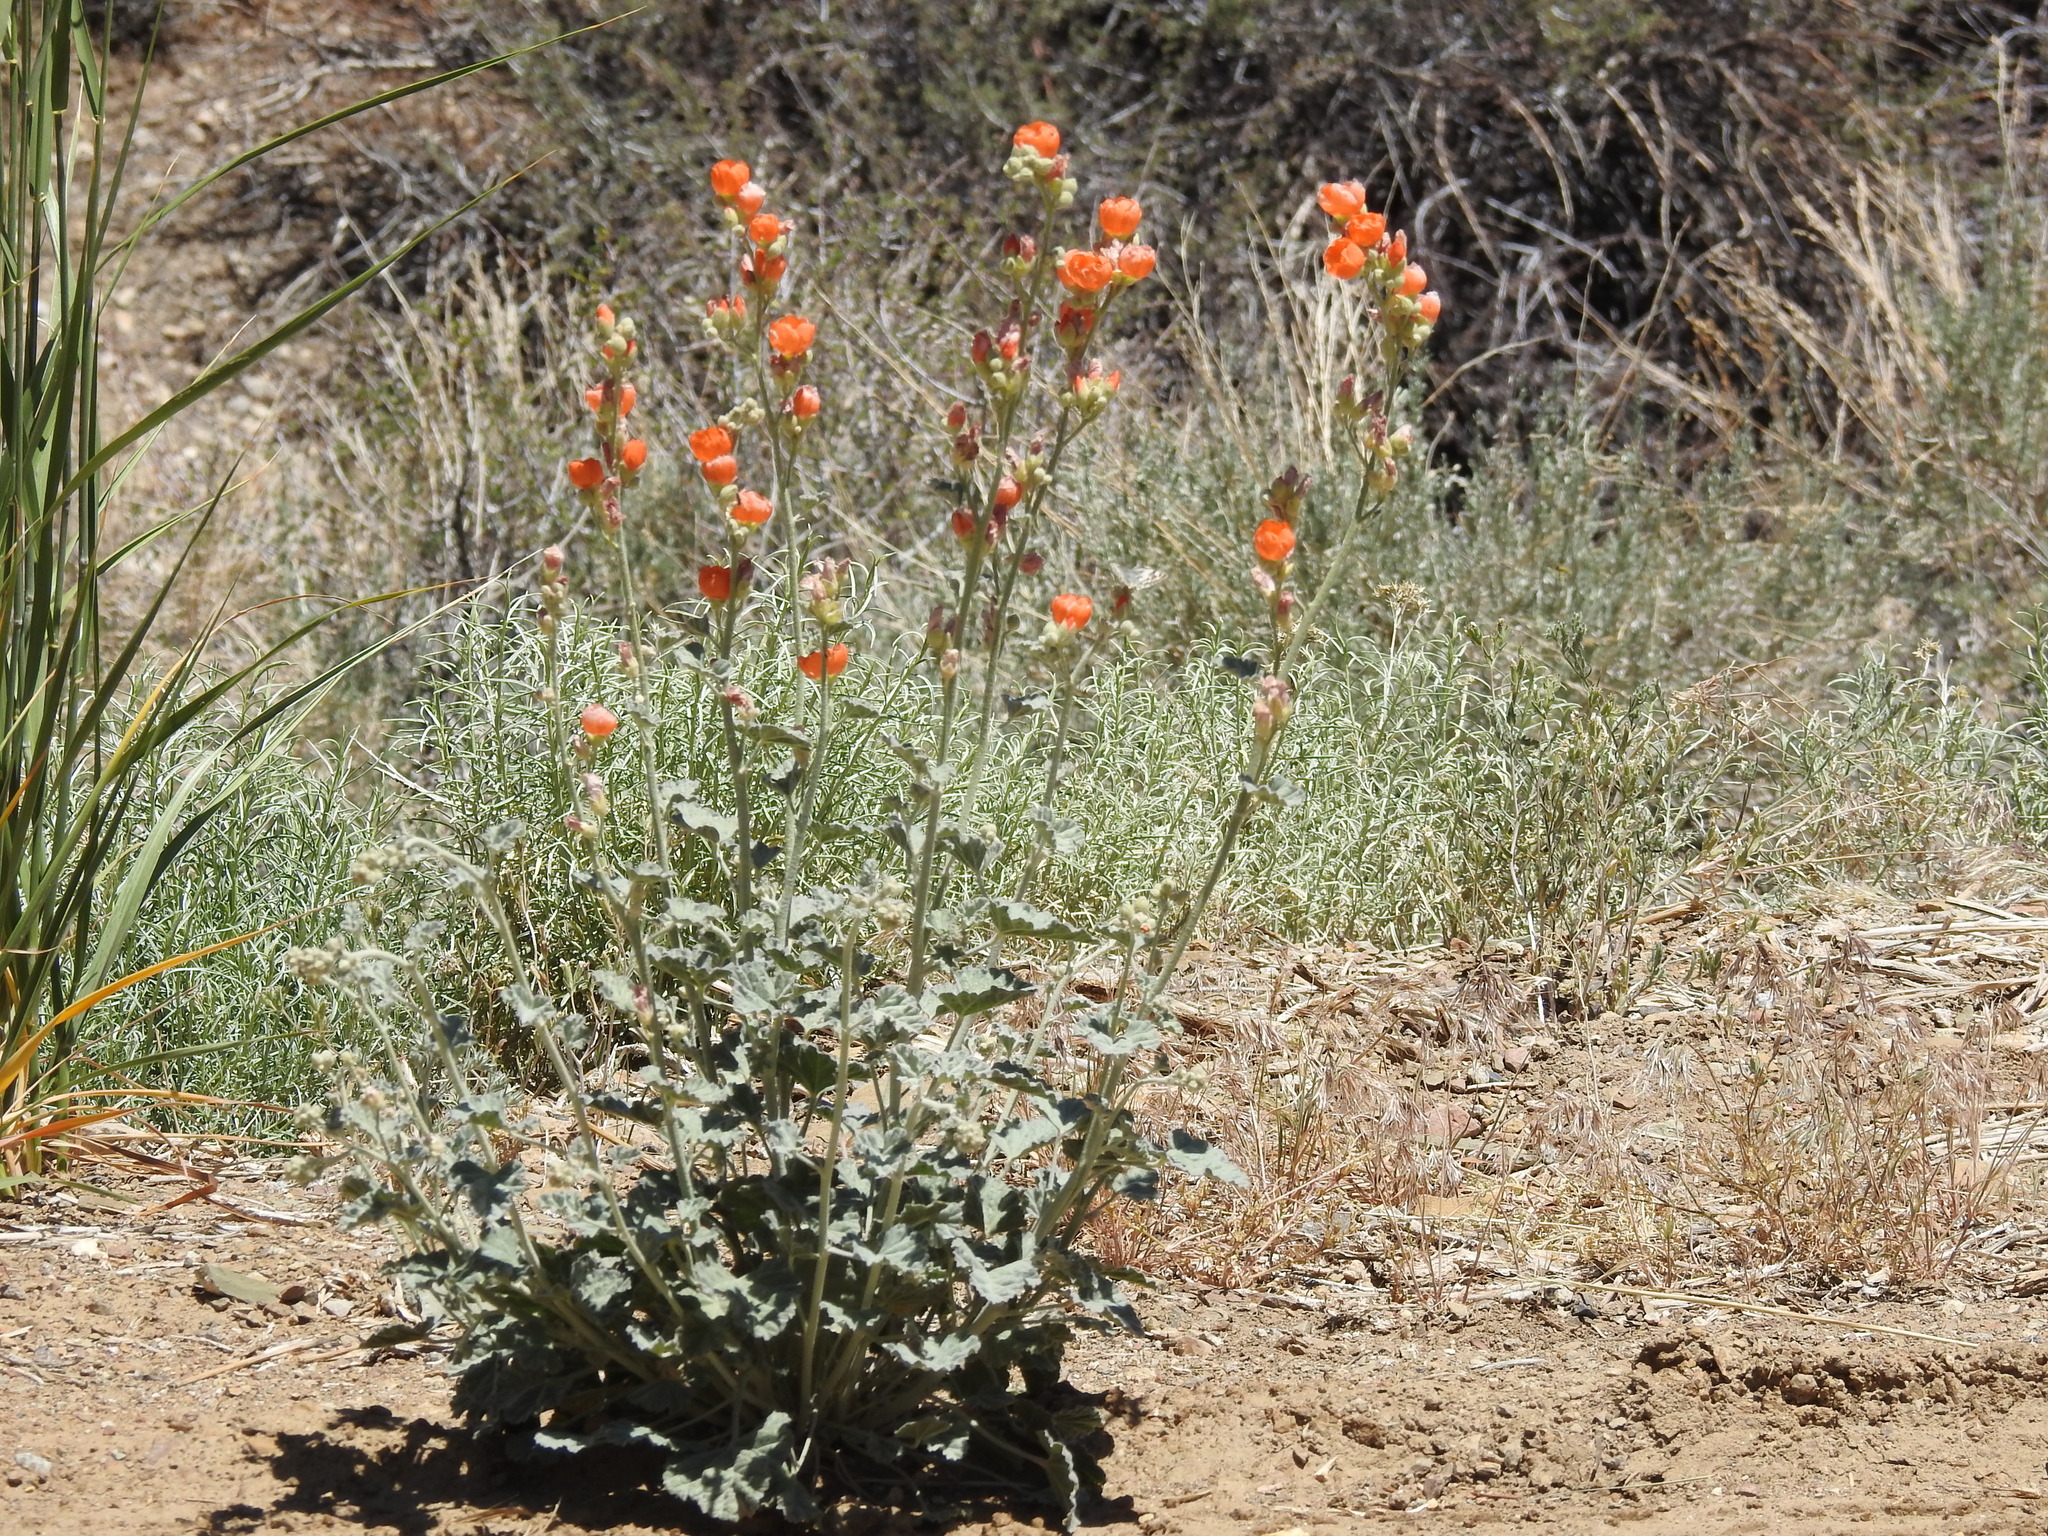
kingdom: Plantae
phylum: Tracheophyta
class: Magnoliopsida
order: Malvales
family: Malvaceae
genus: Sphaeralcea
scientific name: Sphaeralcea ambigua
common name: Apricot globe-mallow
